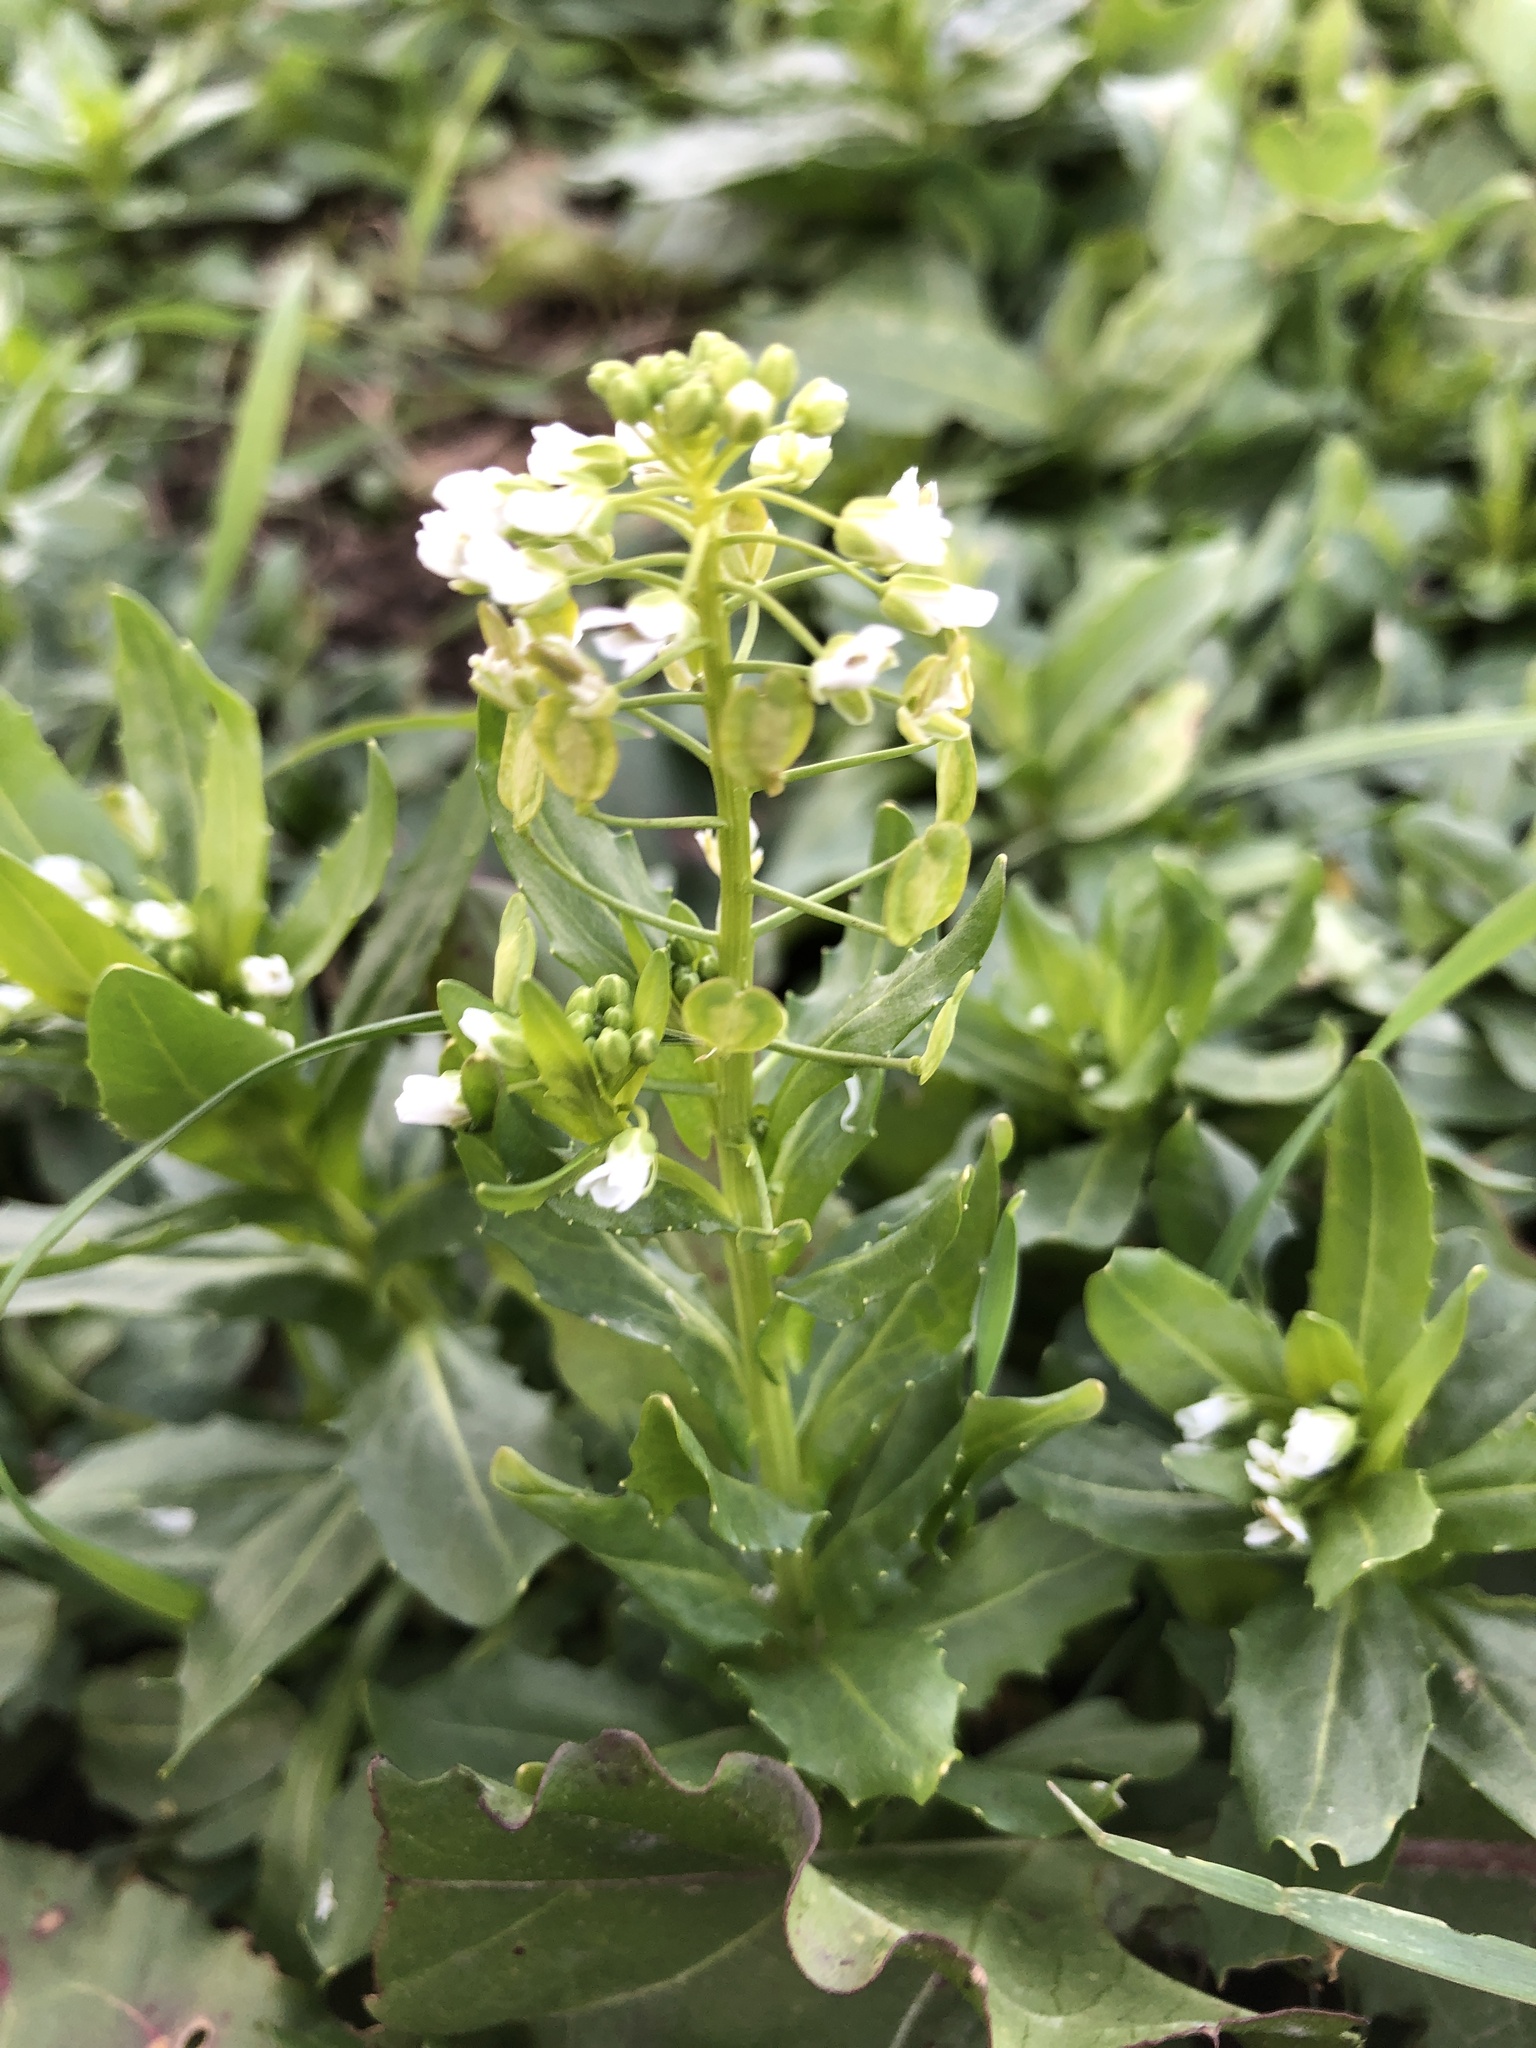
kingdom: Plantae
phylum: Tracheophyta
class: Magnoliopsida
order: Brassicales
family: Brassicaceae
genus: Thlaspi
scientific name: Thlaspi arvense
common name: Field pennycress
